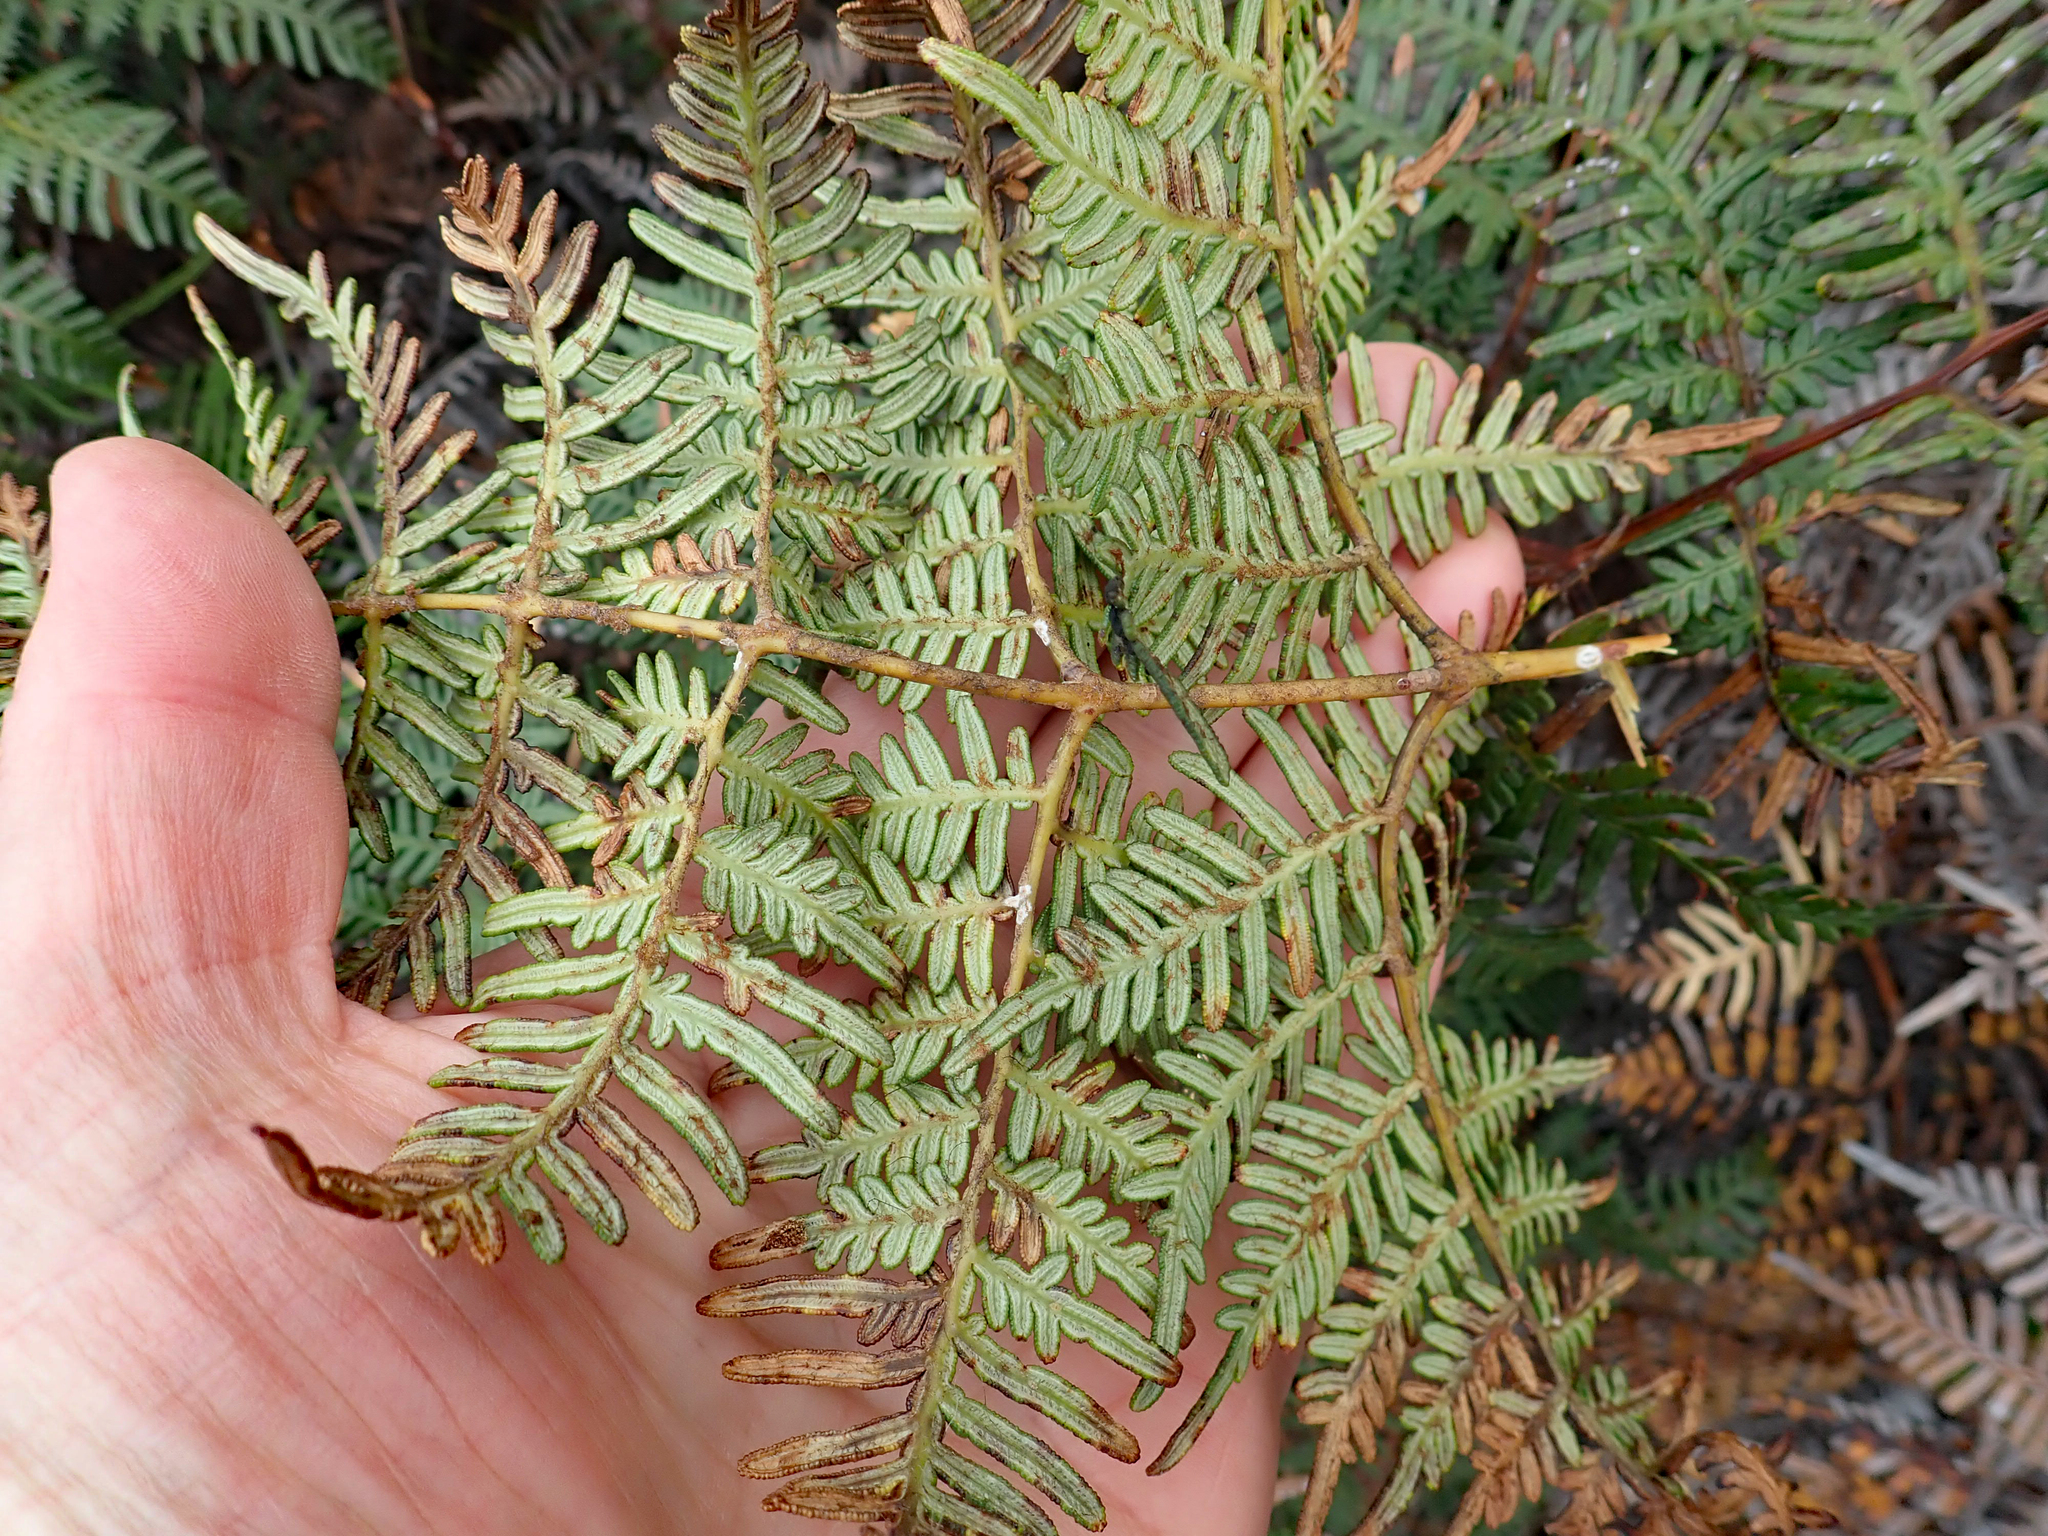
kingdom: Plantae
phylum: Tracheophyta
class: Polypodiopsida
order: Polypodiales
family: Dennstaedtiaceae
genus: Pteridium
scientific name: Pteridium esculentum
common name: Bracken fern
